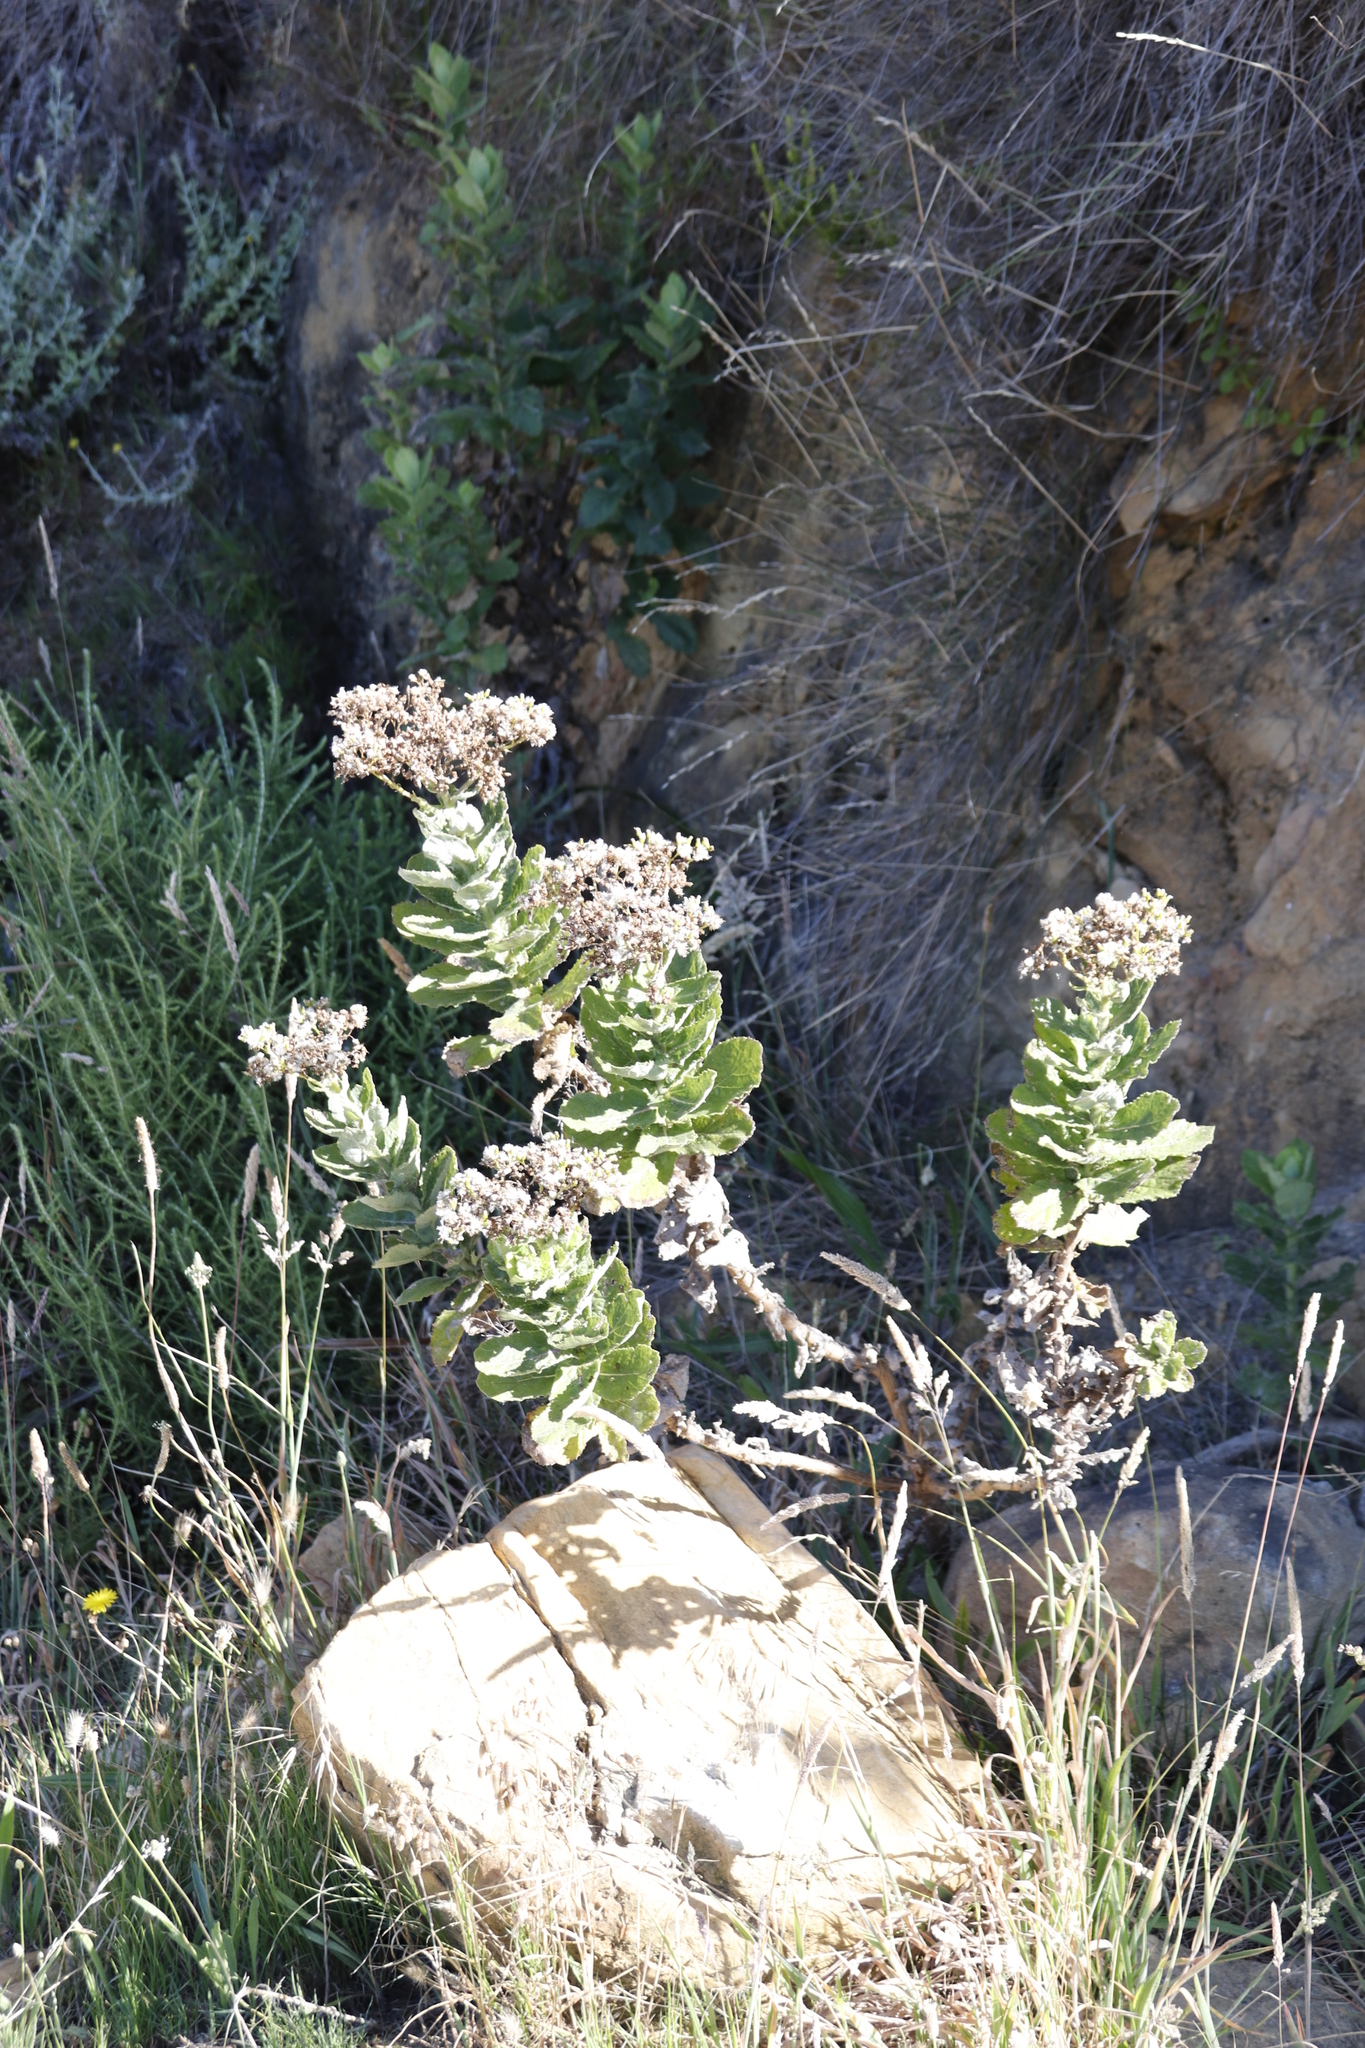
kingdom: Plantae
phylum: Tracheophyta
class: Magnoliopsida
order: Asterales
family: Asteraceae
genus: Senecio
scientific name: Senecio rigidus
